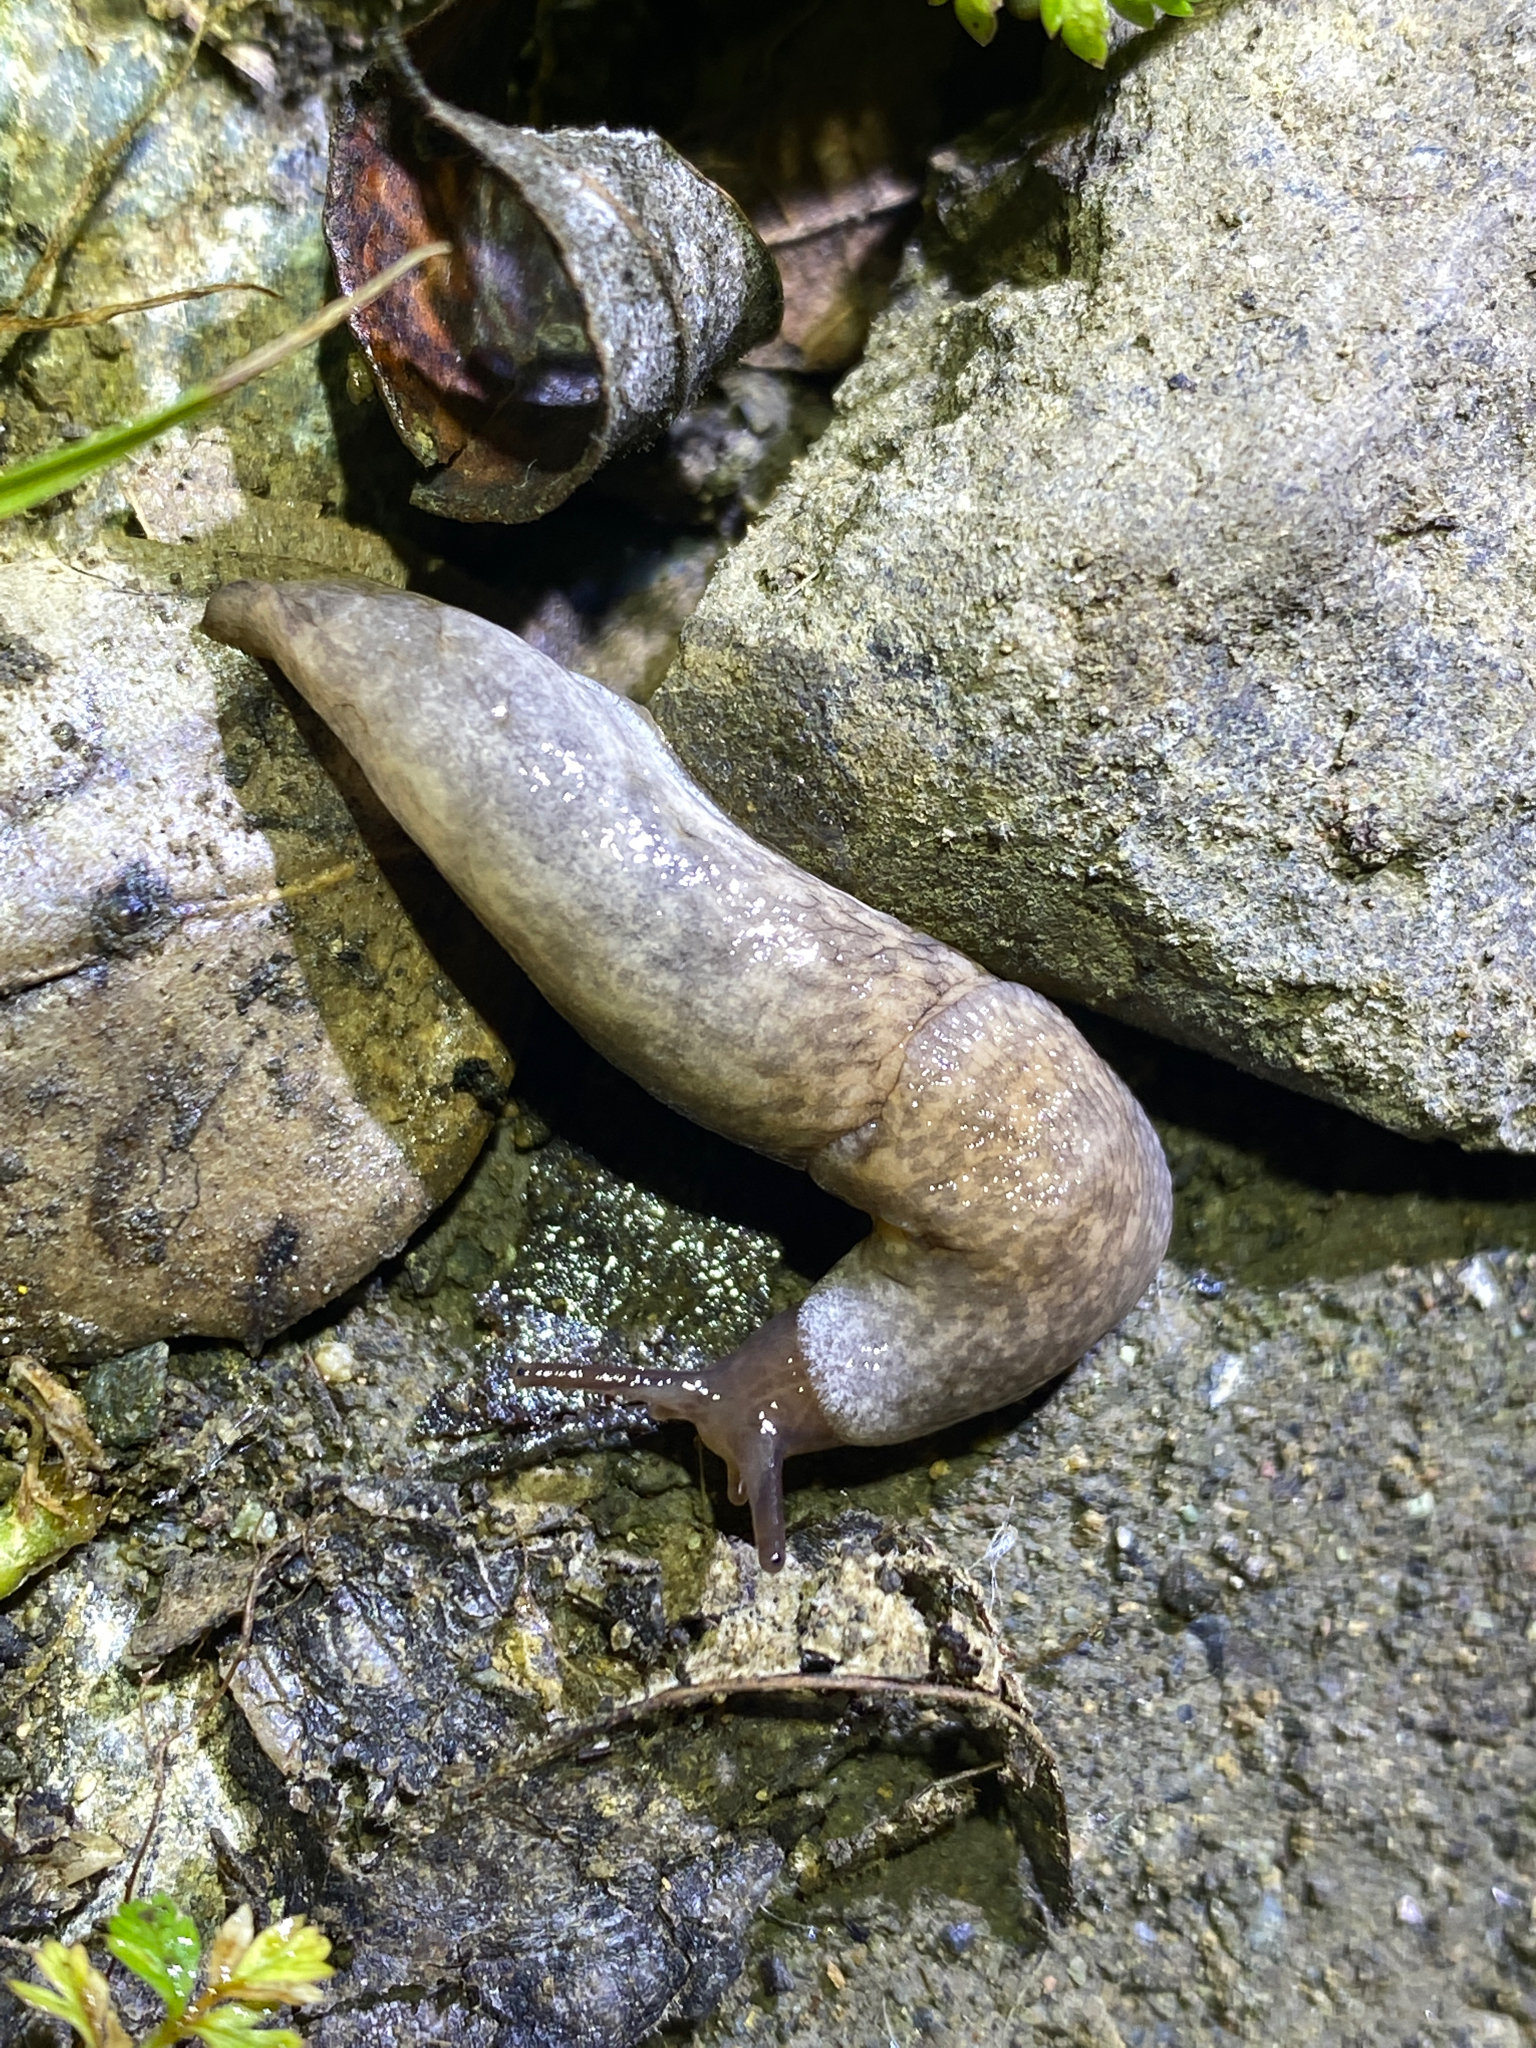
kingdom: Animalia
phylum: Mollusca
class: Gastropoda
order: Stylommatophora
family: Agriolimacidae
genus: Deroceras
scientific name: Deroceras reticulatum
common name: Gray field slug
